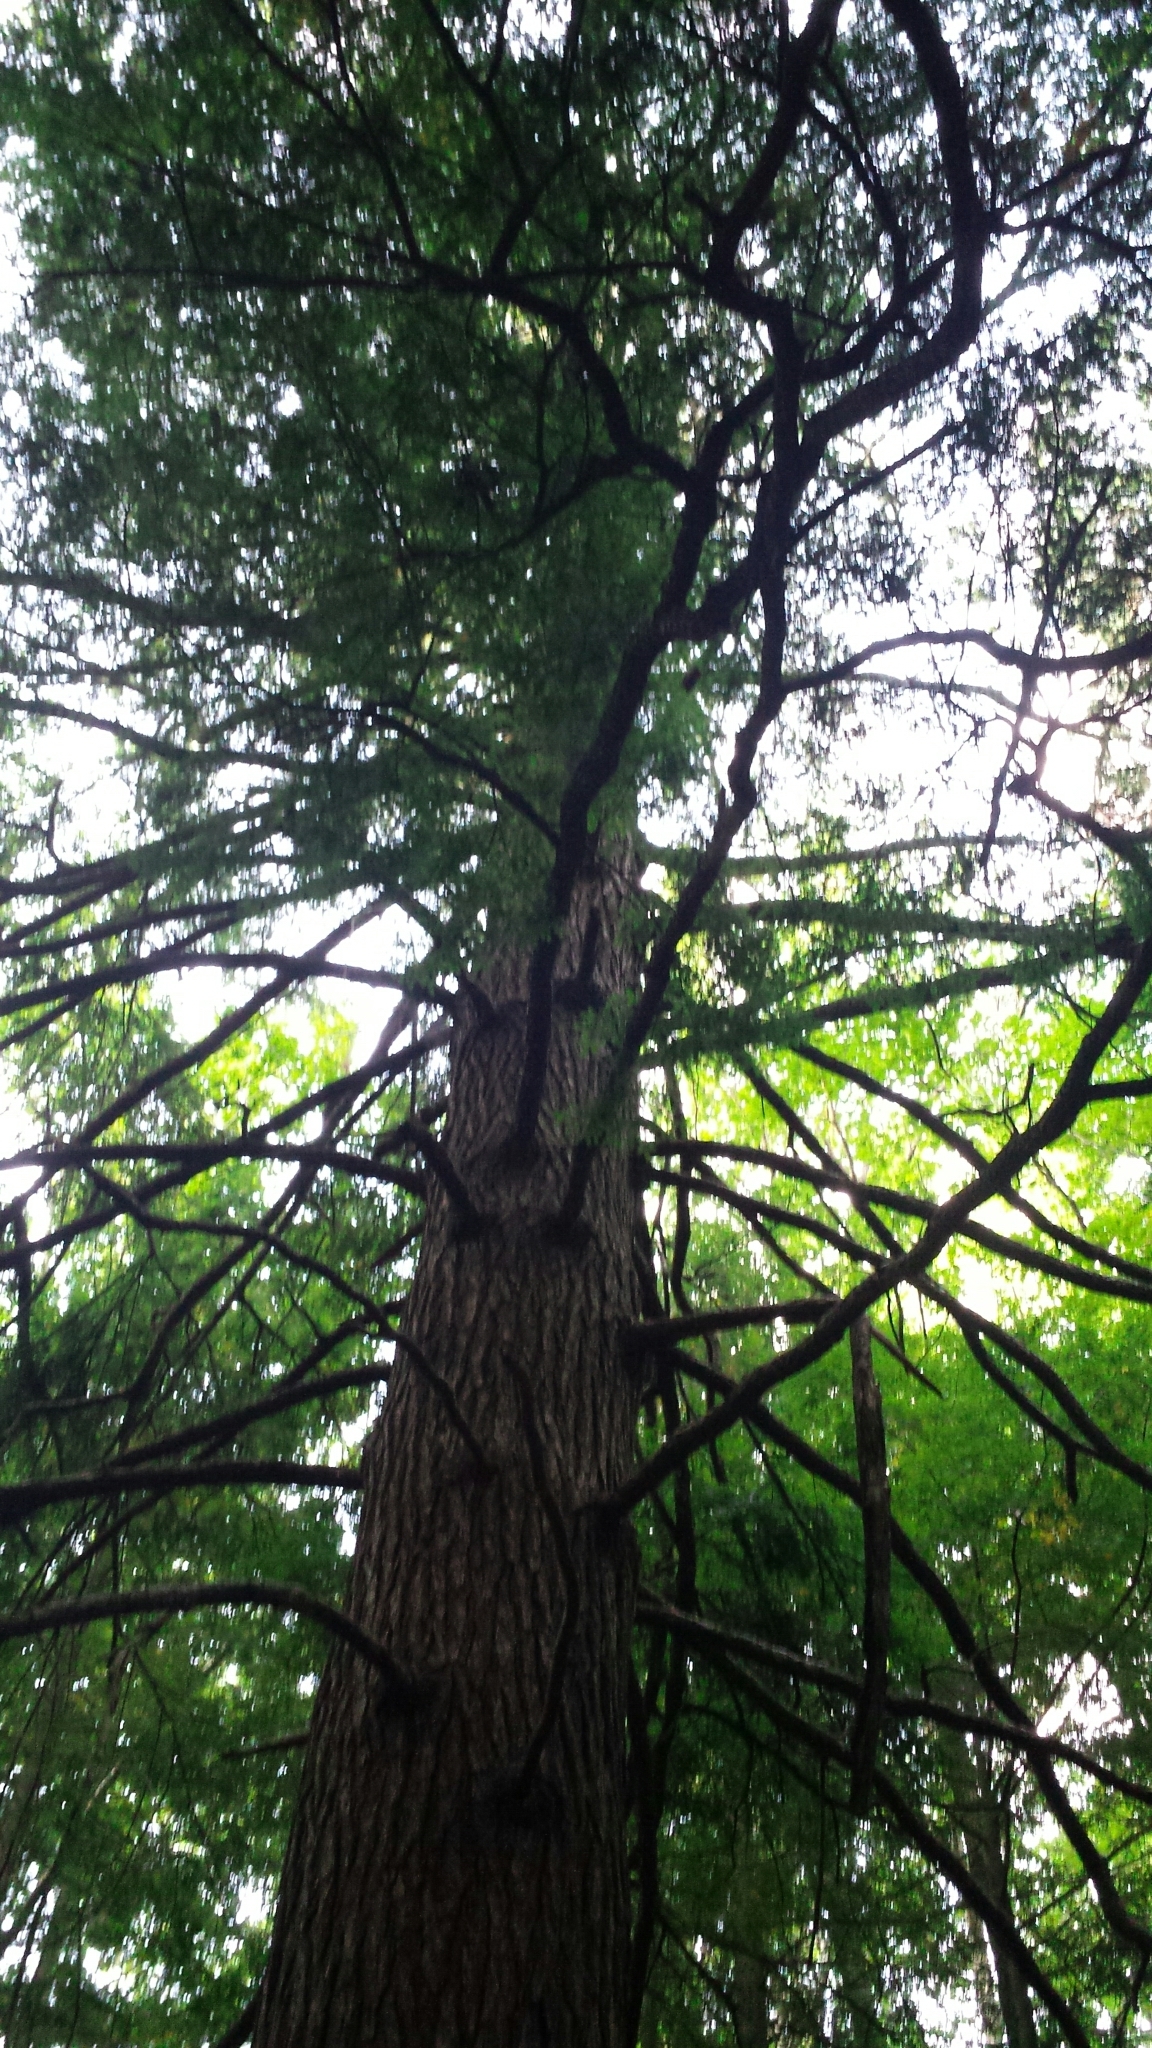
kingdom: Plantae
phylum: Tracheophyta
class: Pinopsida
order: Pinales
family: Pinaceae
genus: Tsuga
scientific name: Tsuga canadensis
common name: Eastern hemlock
